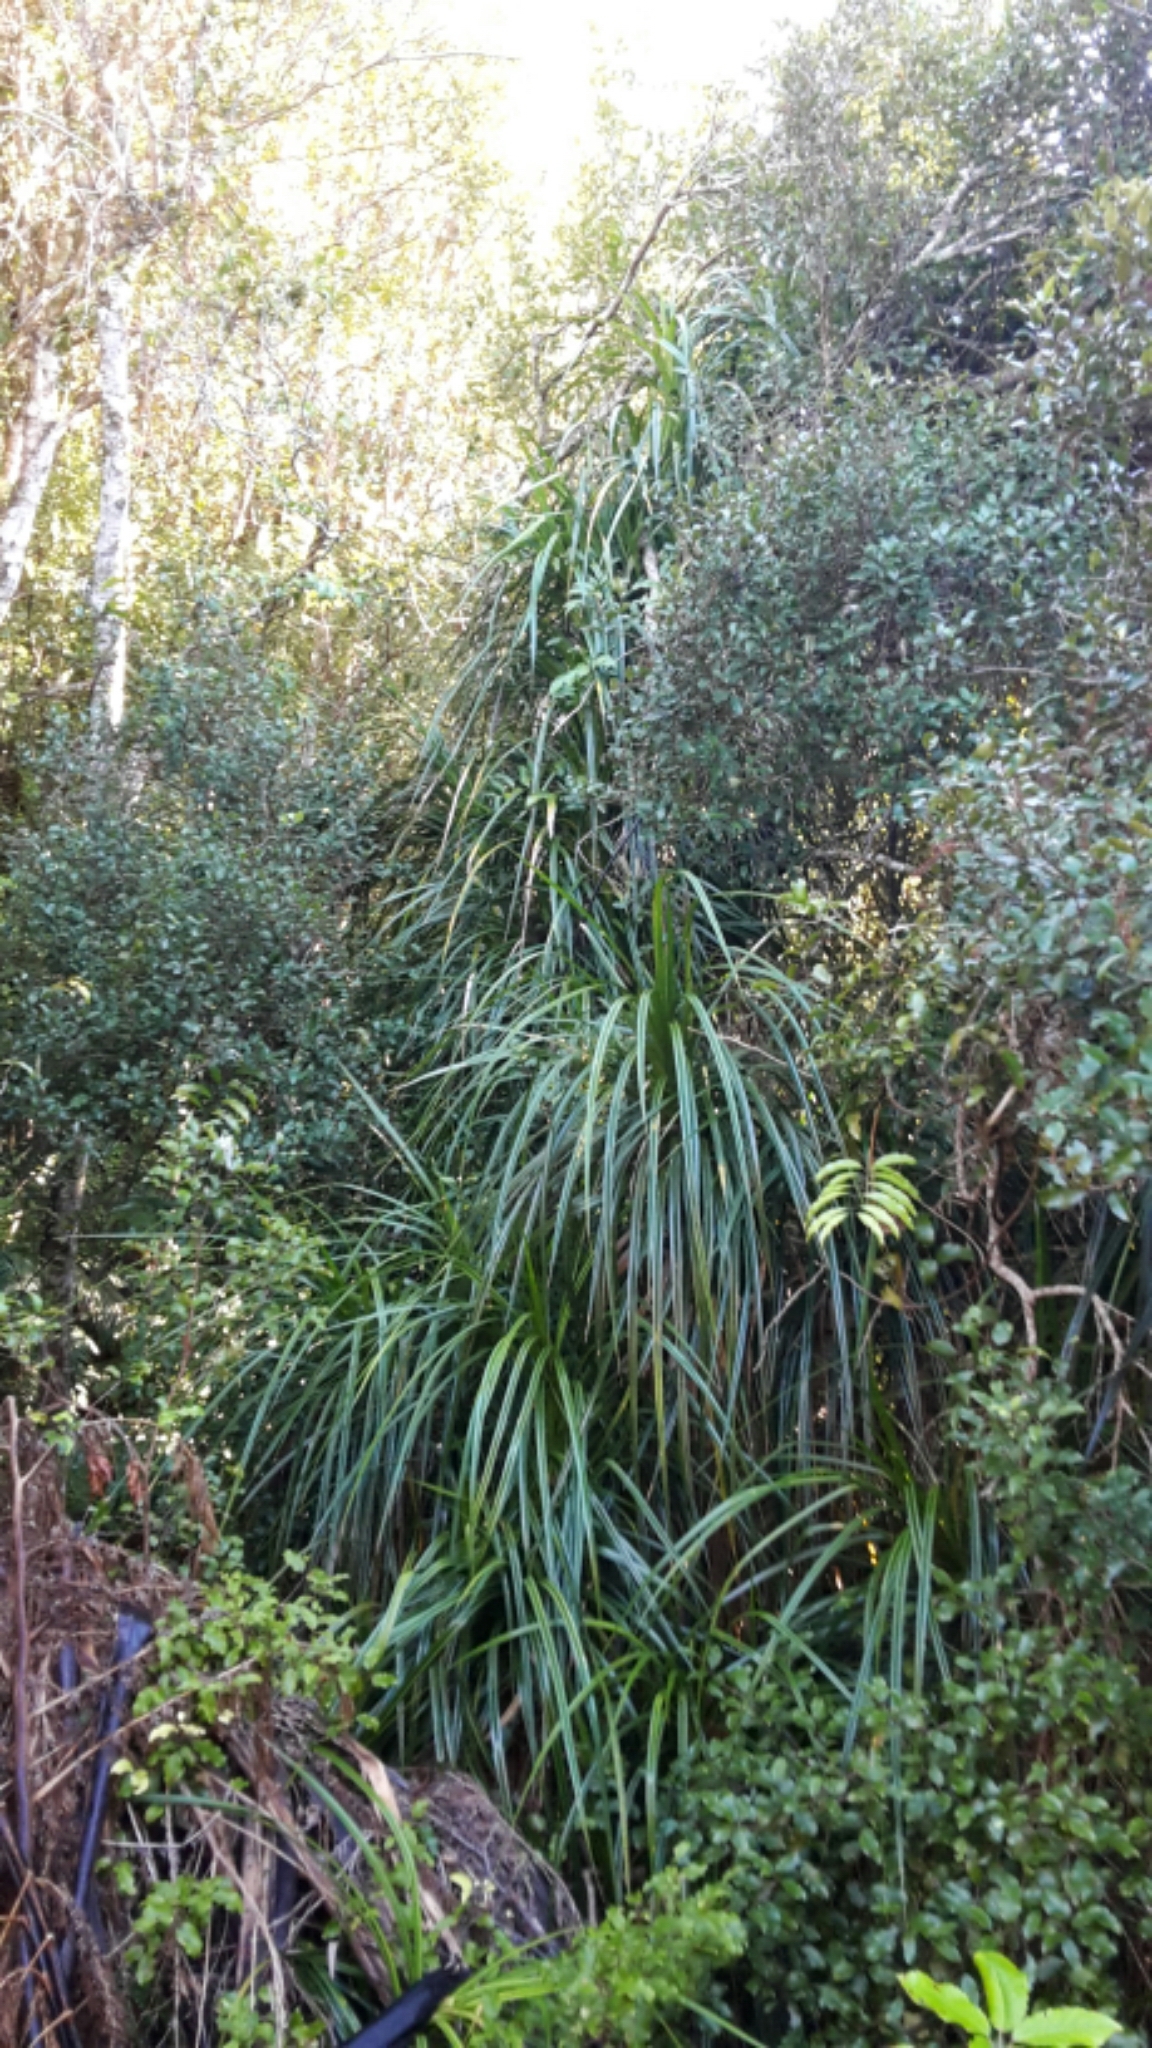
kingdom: Plantae
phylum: Tracheophyta
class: Liliopsida
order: Pandanales
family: Pandanaceae
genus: Freycinetia
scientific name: Freycinetia banksii
